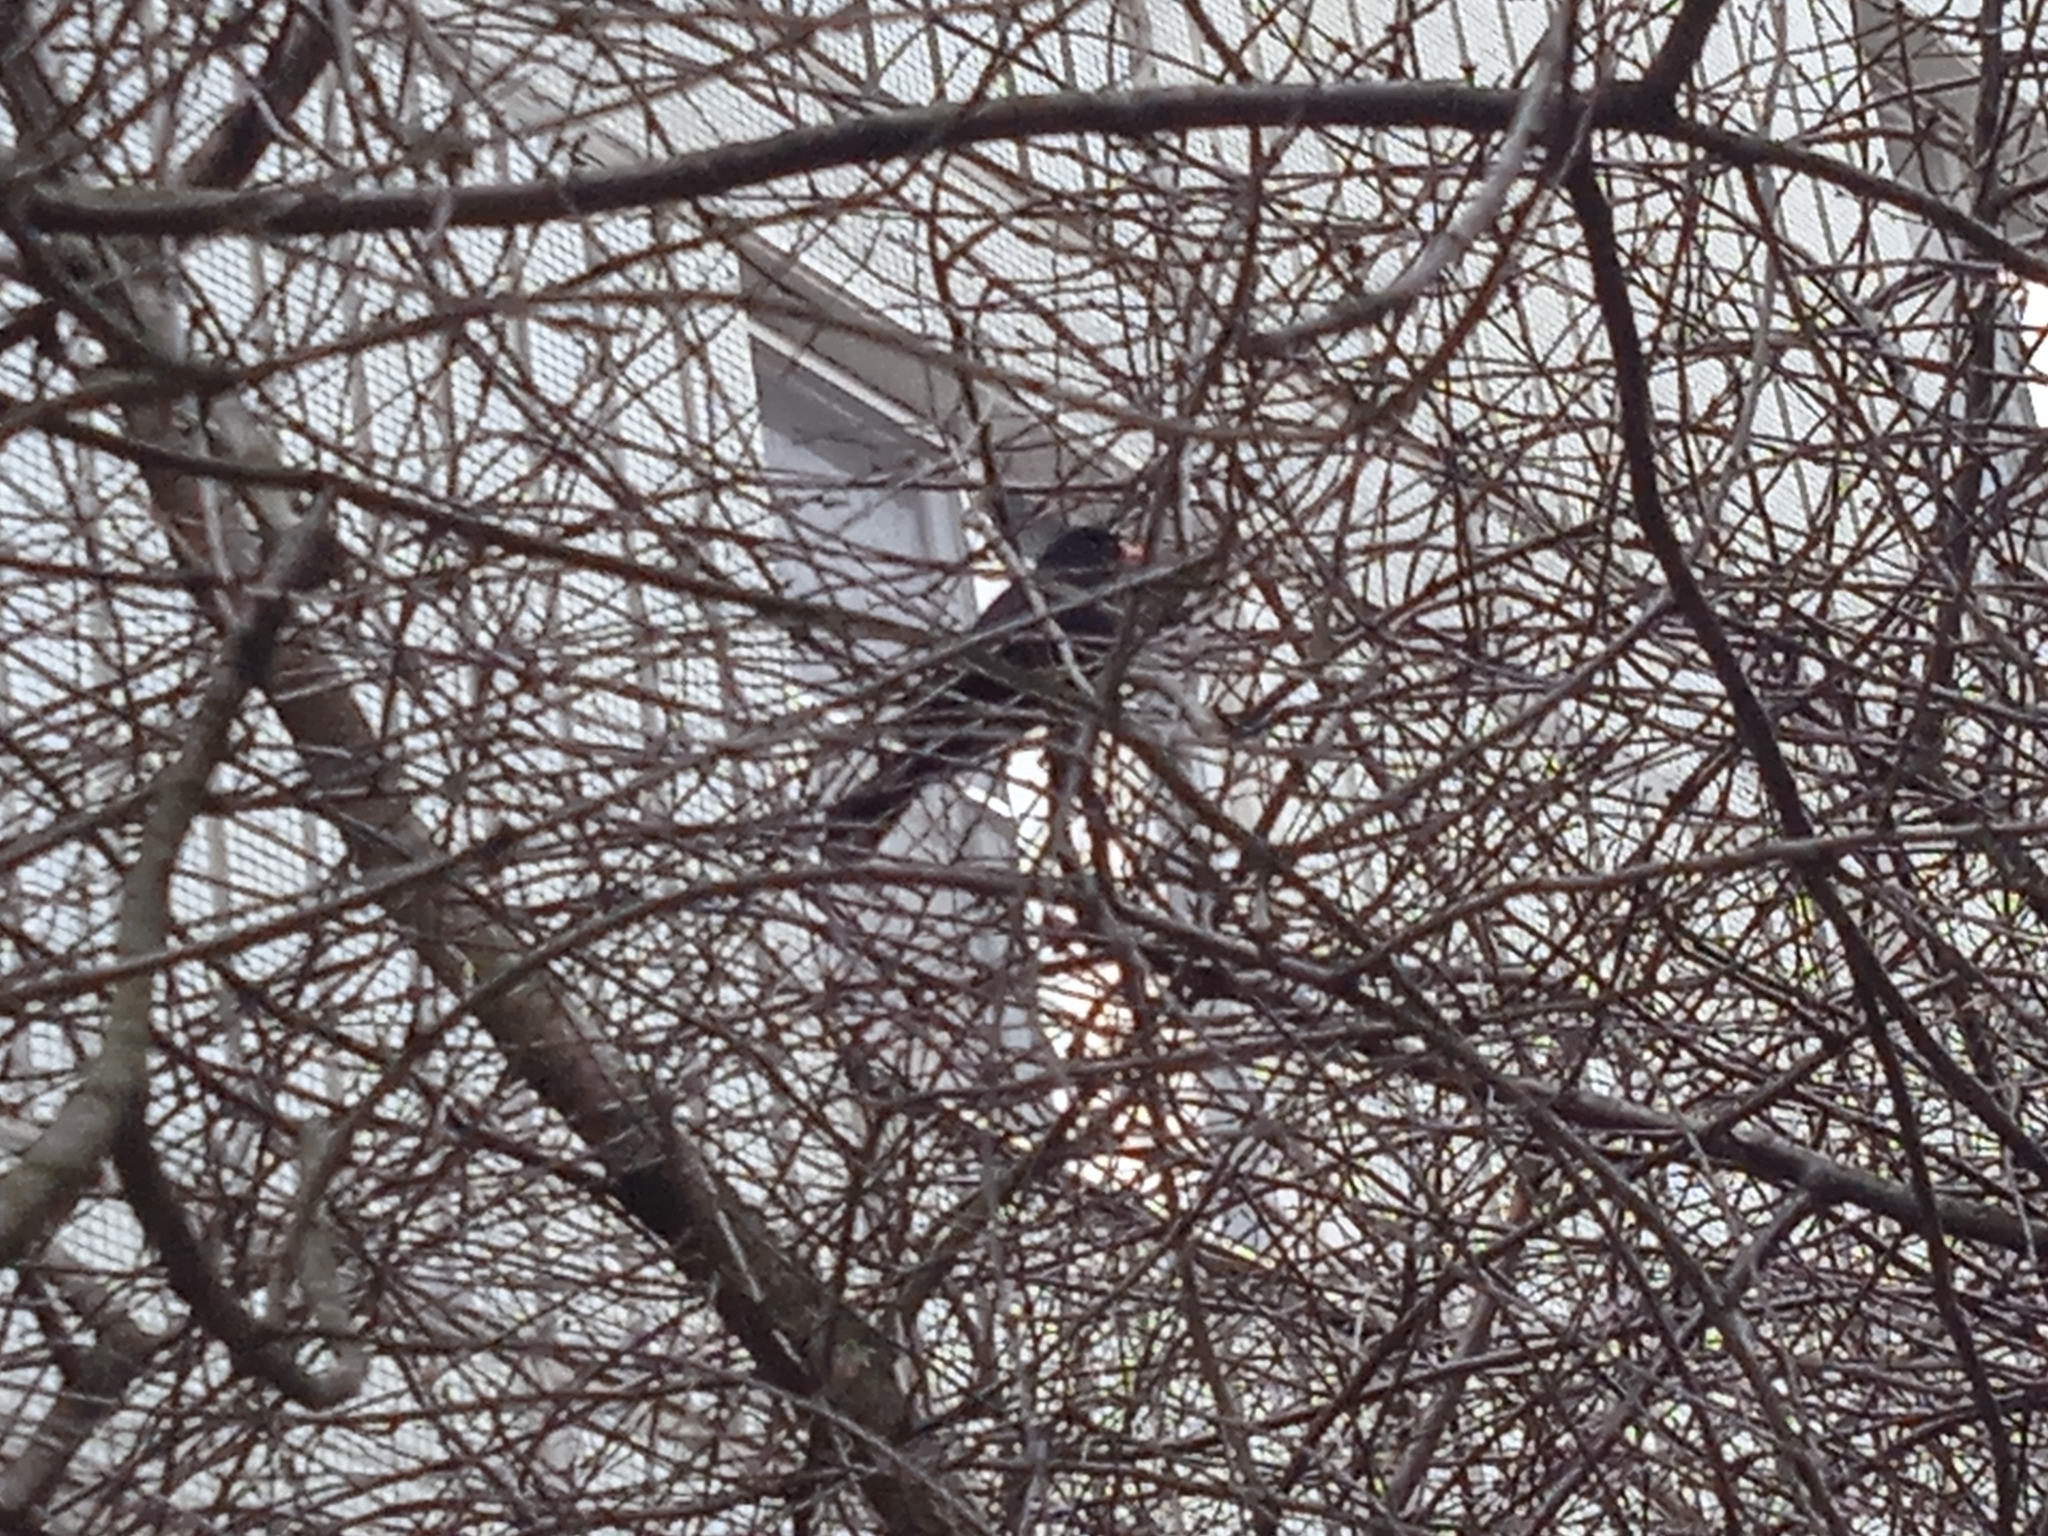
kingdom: Animalia
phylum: Chordata
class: Aves
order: Passeriformes
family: Turdidae
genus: Turdus
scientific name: Turdus merula
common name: Common blackbird
